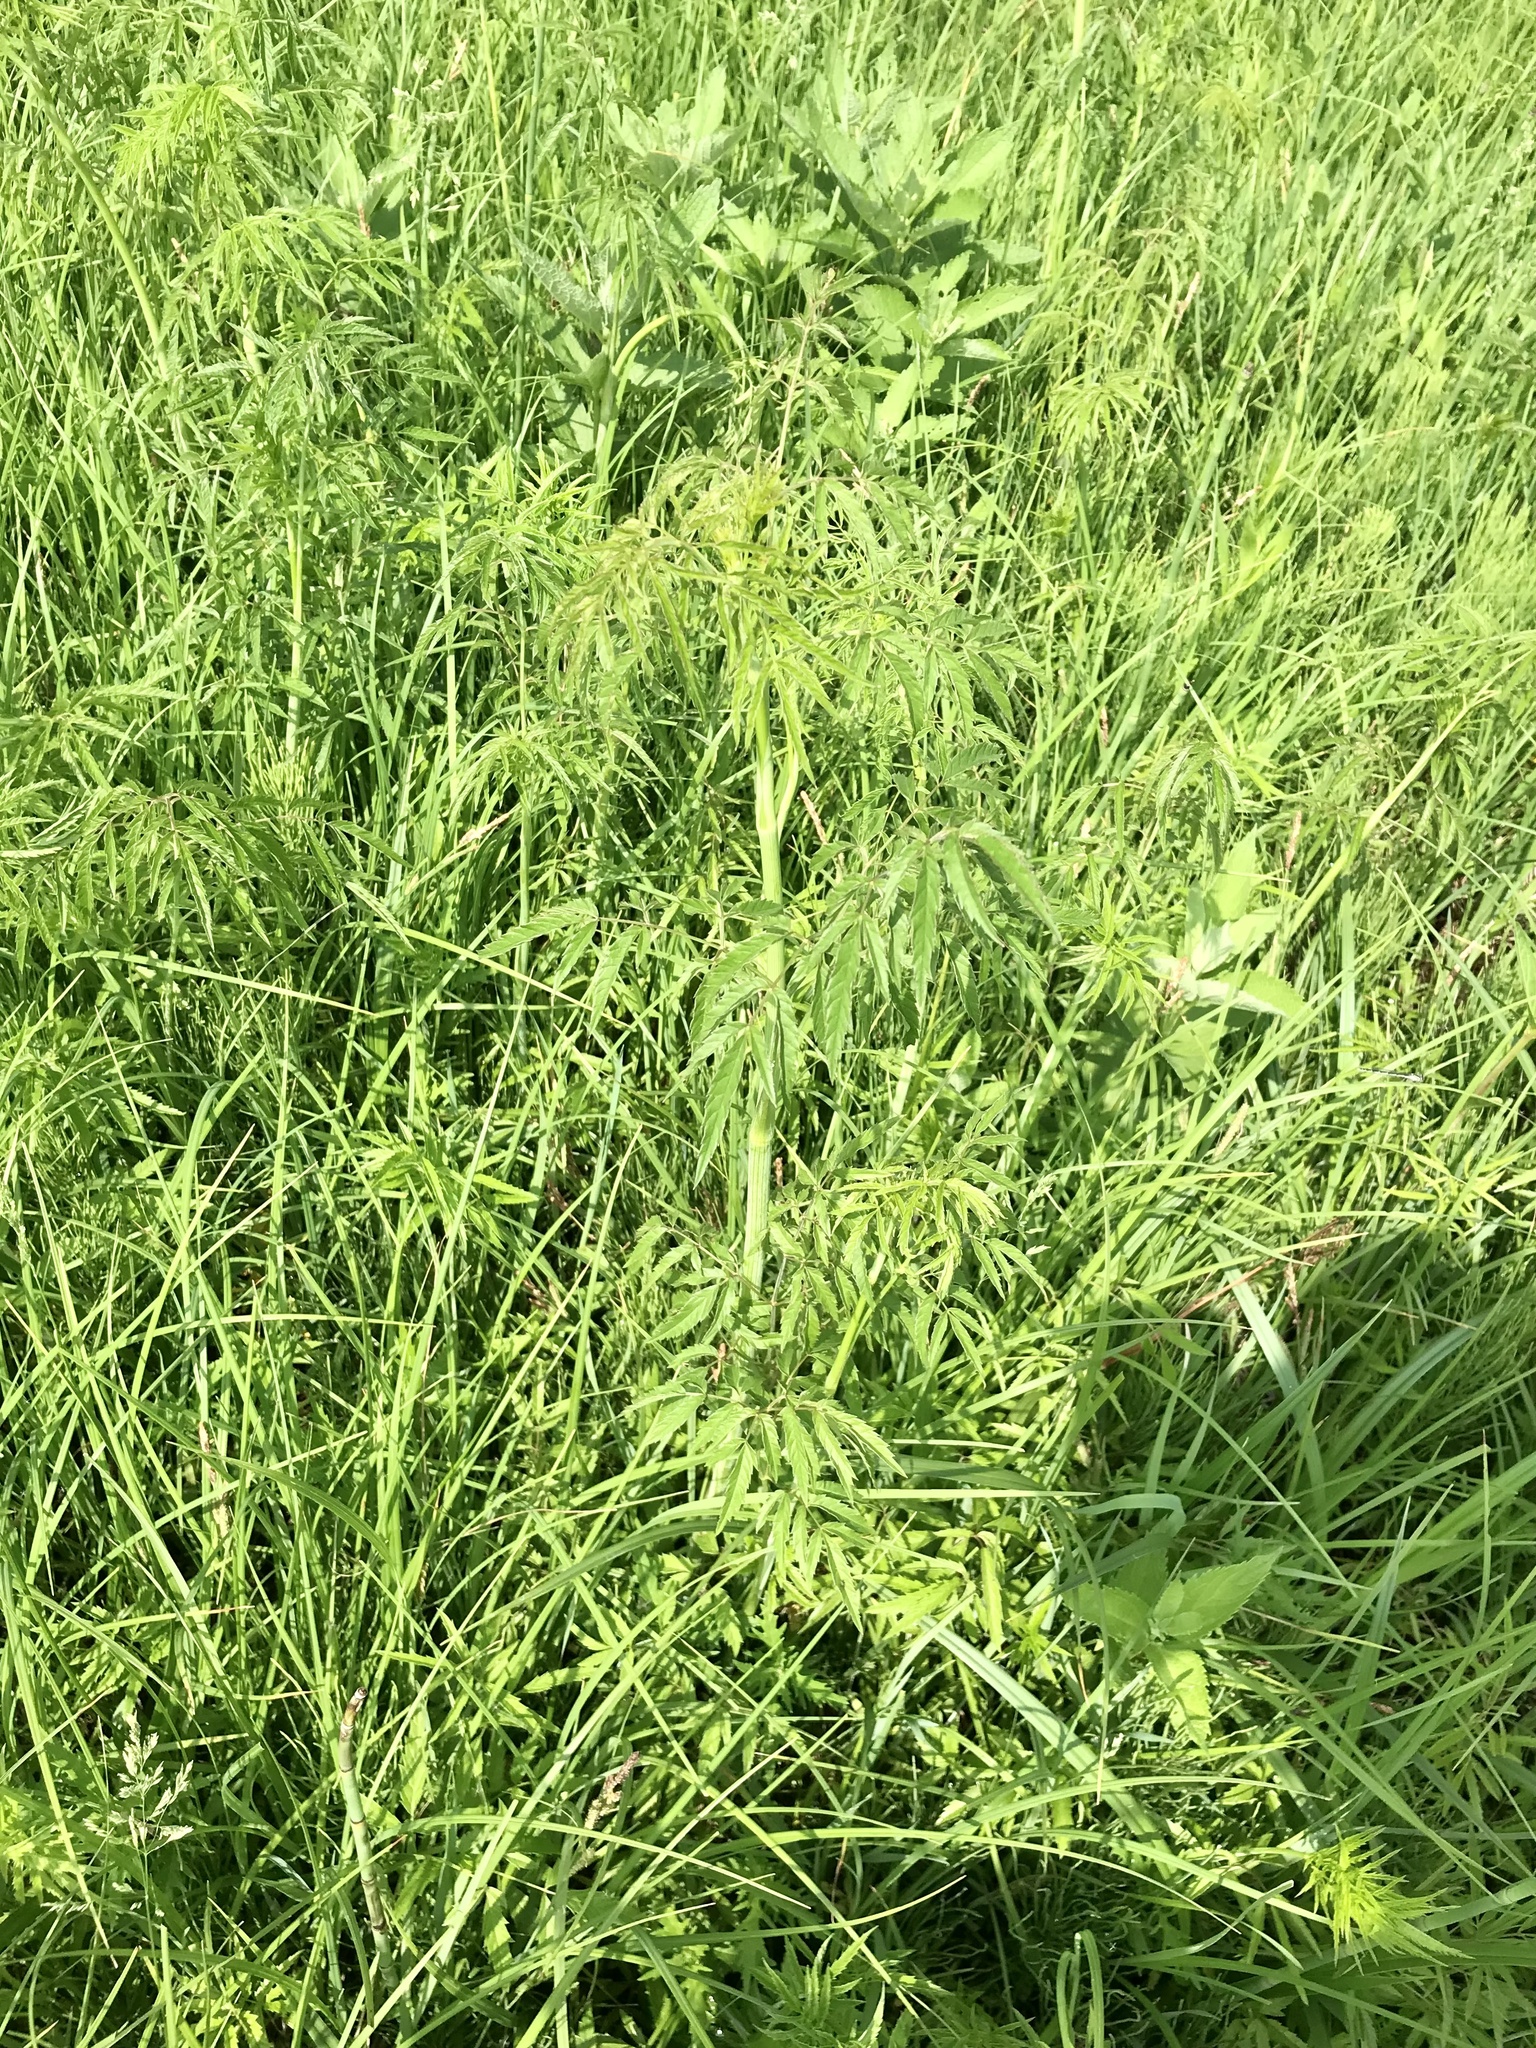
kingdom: Plantae
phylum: Tracheophyta
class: Magnoliopsida
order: Apiales
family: Apiaceae
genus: Cicuta
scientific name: Cicuta maculata
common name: Spotted cowbane
